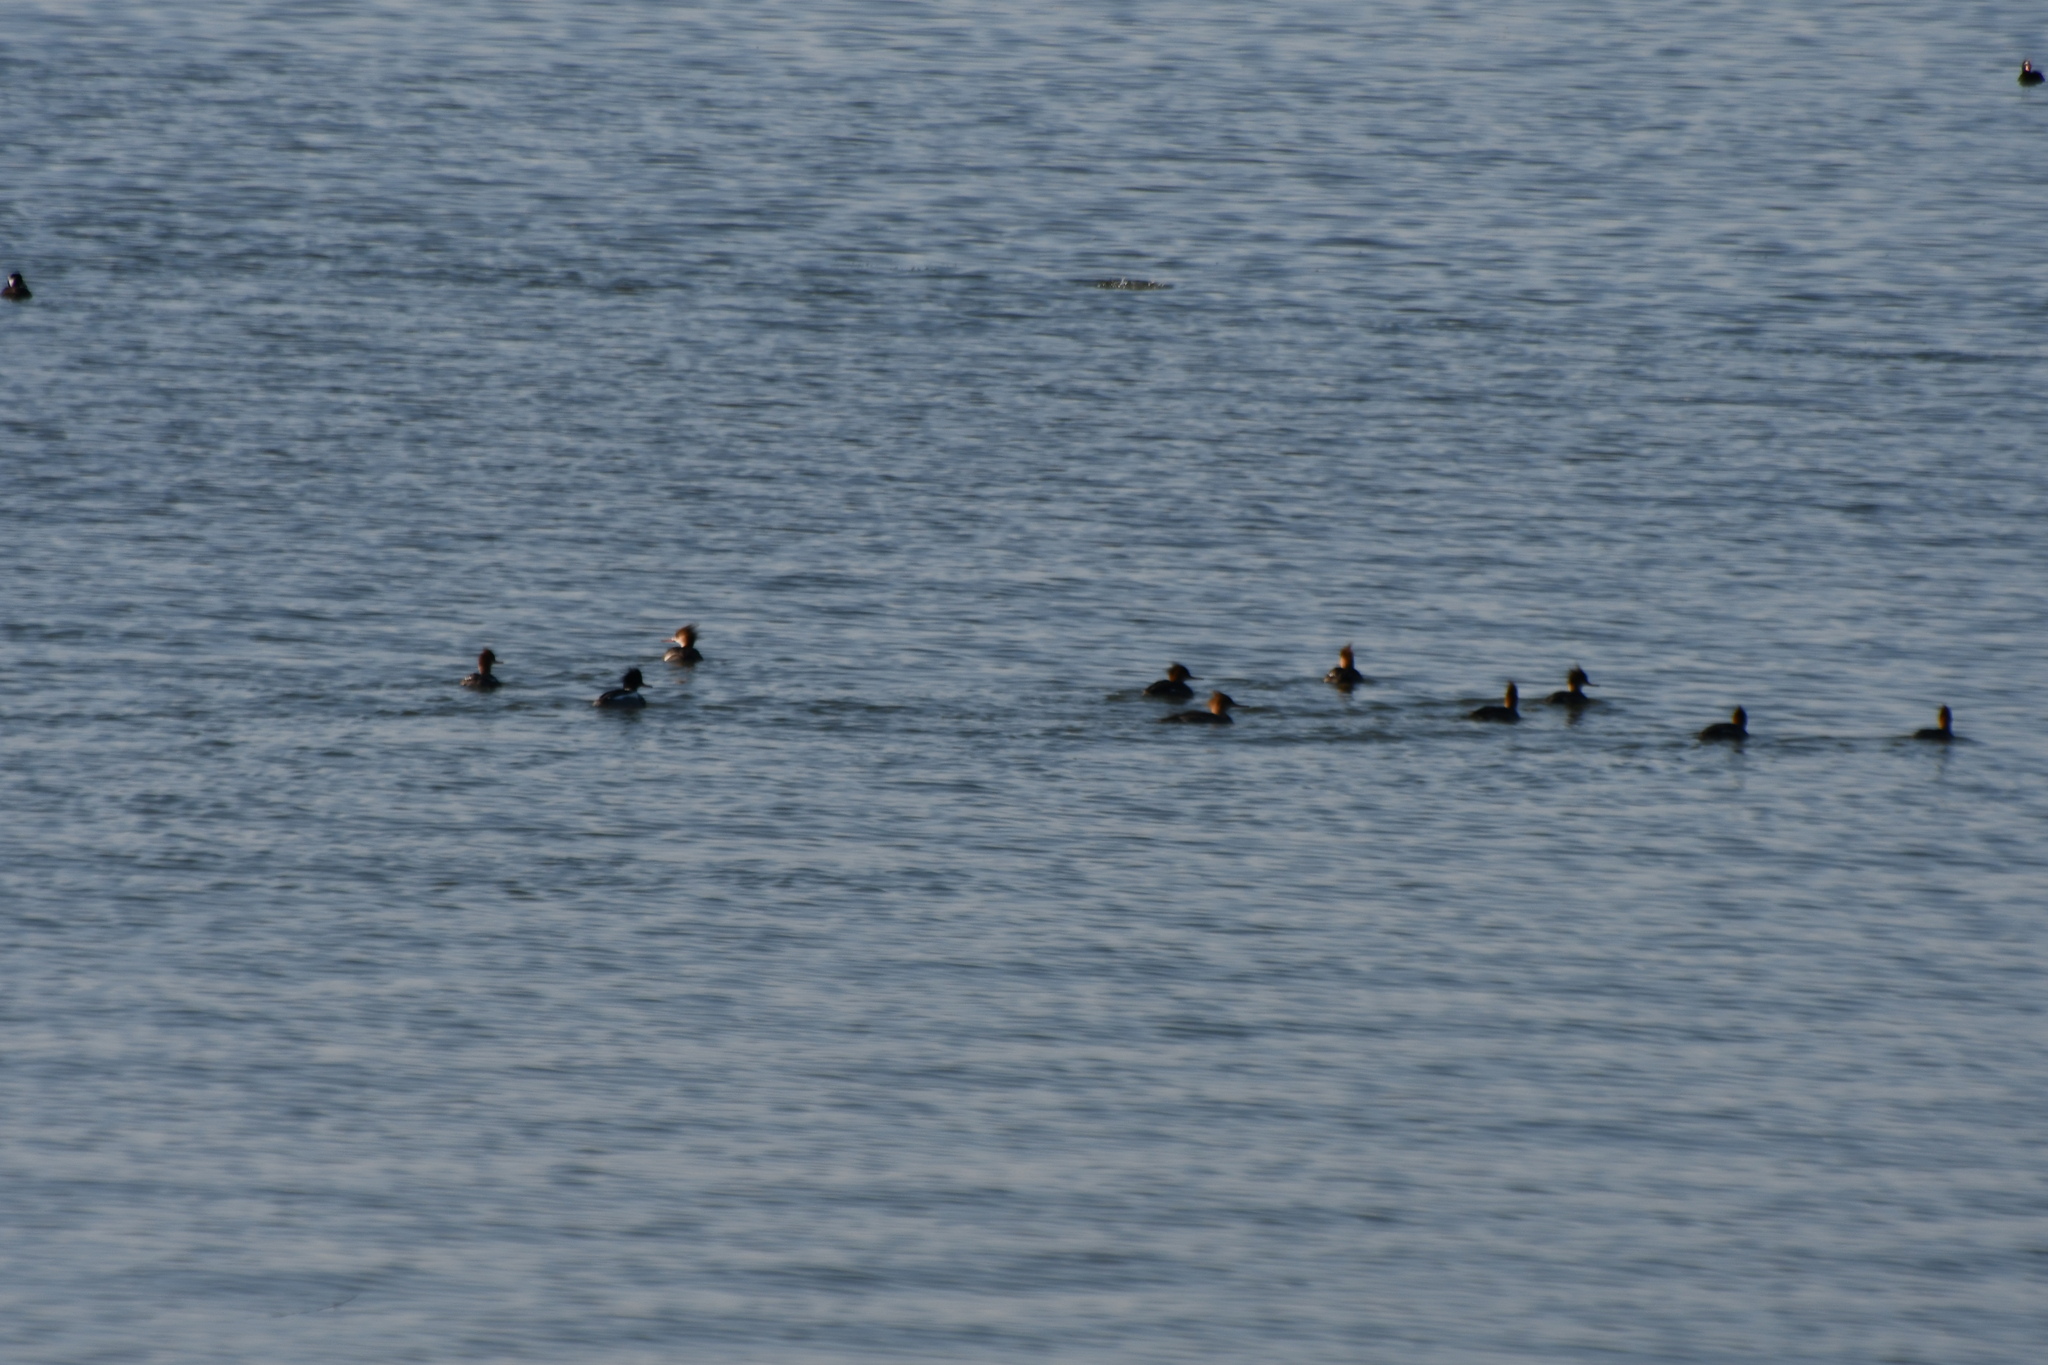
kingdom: Animalia
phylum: Chordata
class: Aves
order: Anseriformes
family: Anatidae
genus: Mergus
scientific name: Mergus serrator
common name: Red-breasted merganser
